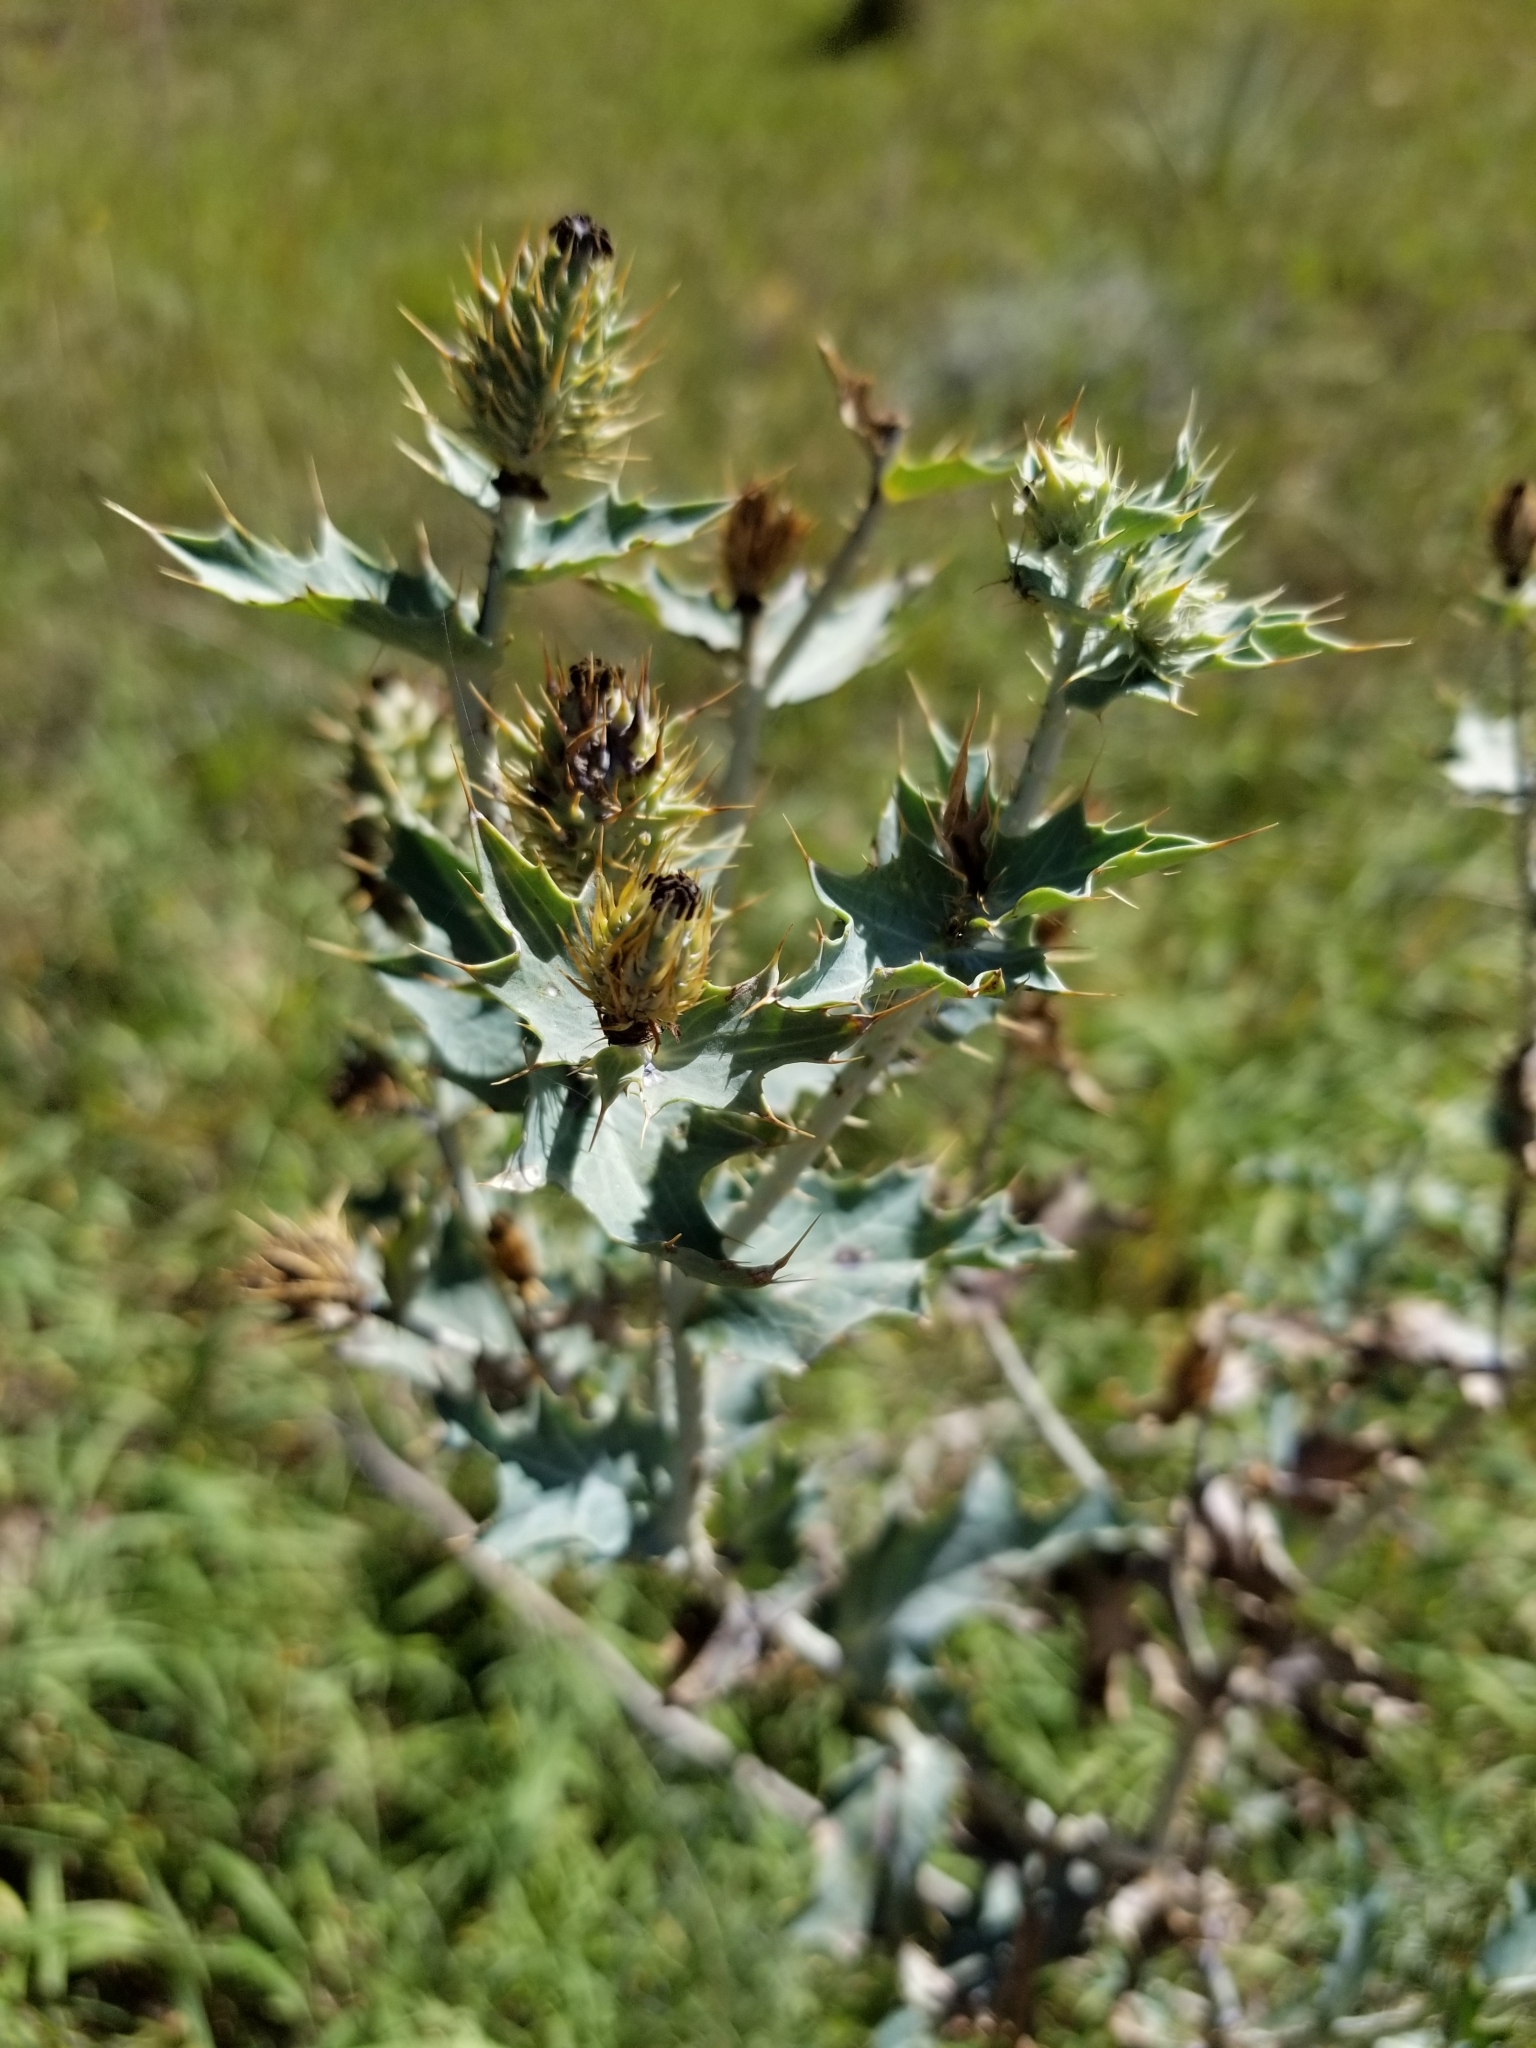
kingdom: Plantae
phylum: Tracheophyta
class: Magnoliopsida
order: Ranunculales
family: Papaveraceae
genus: Argemone
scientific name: Argemone polyanthemos
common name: Plains prickly-poppy
